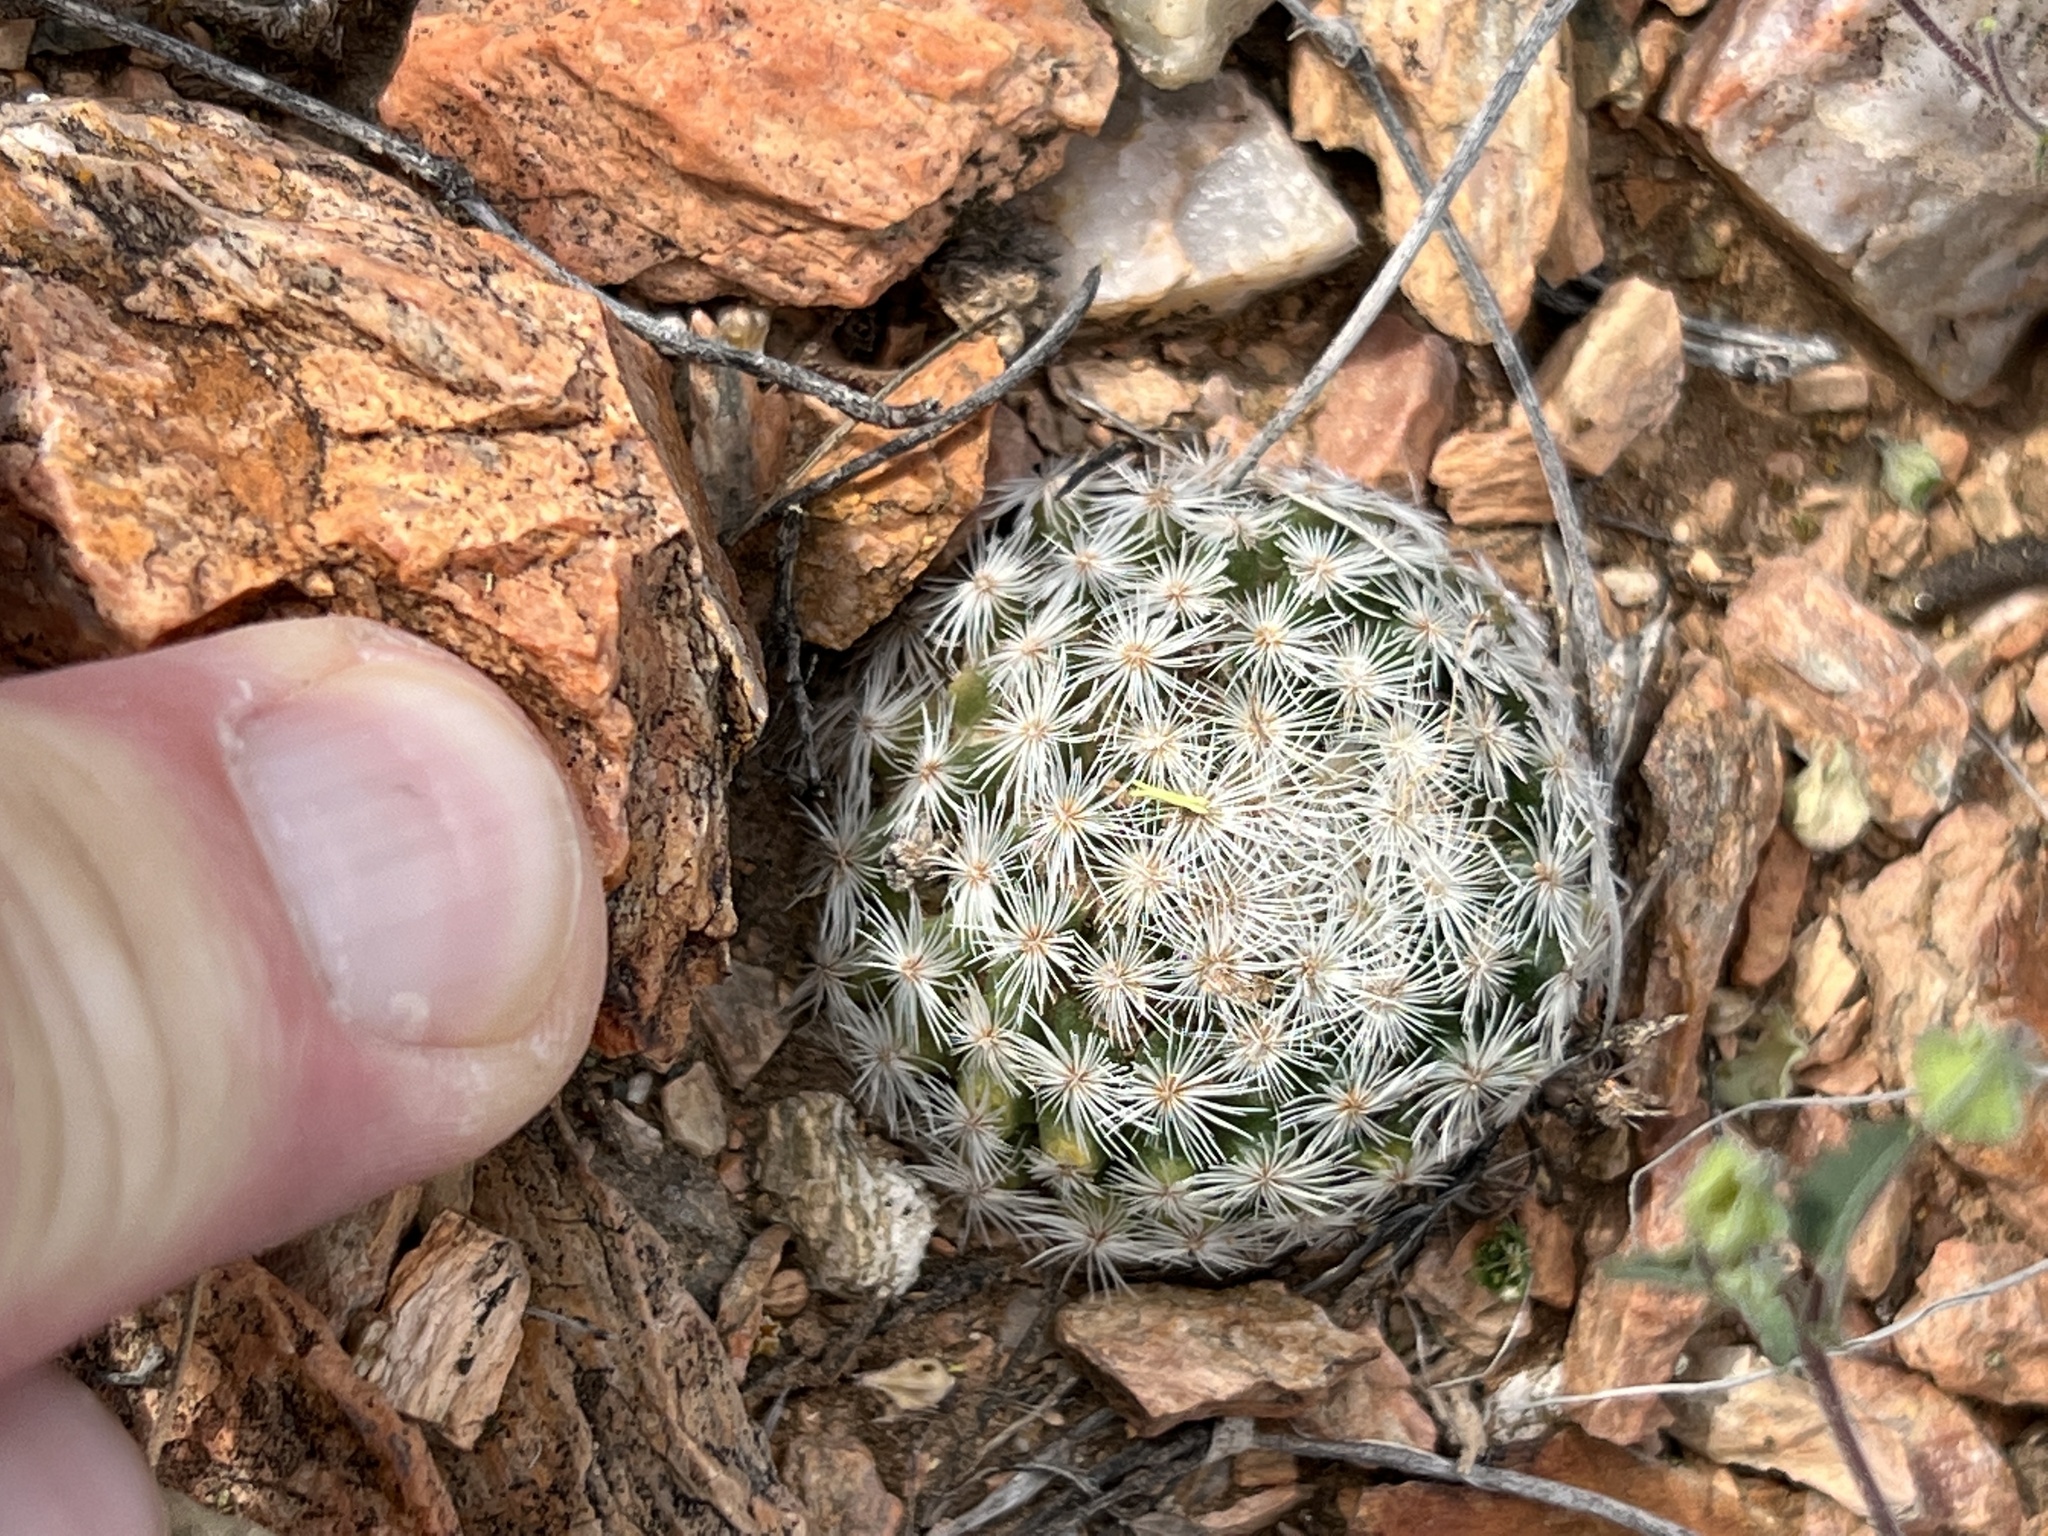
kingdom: Plantae
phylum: Tracheophyta
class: Magnoliopsida
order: Caryophyllales
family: Cactaceae
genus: Mammillaria
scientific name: Mammillaria lasiacantha
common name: Lace-spine nipple cactus
